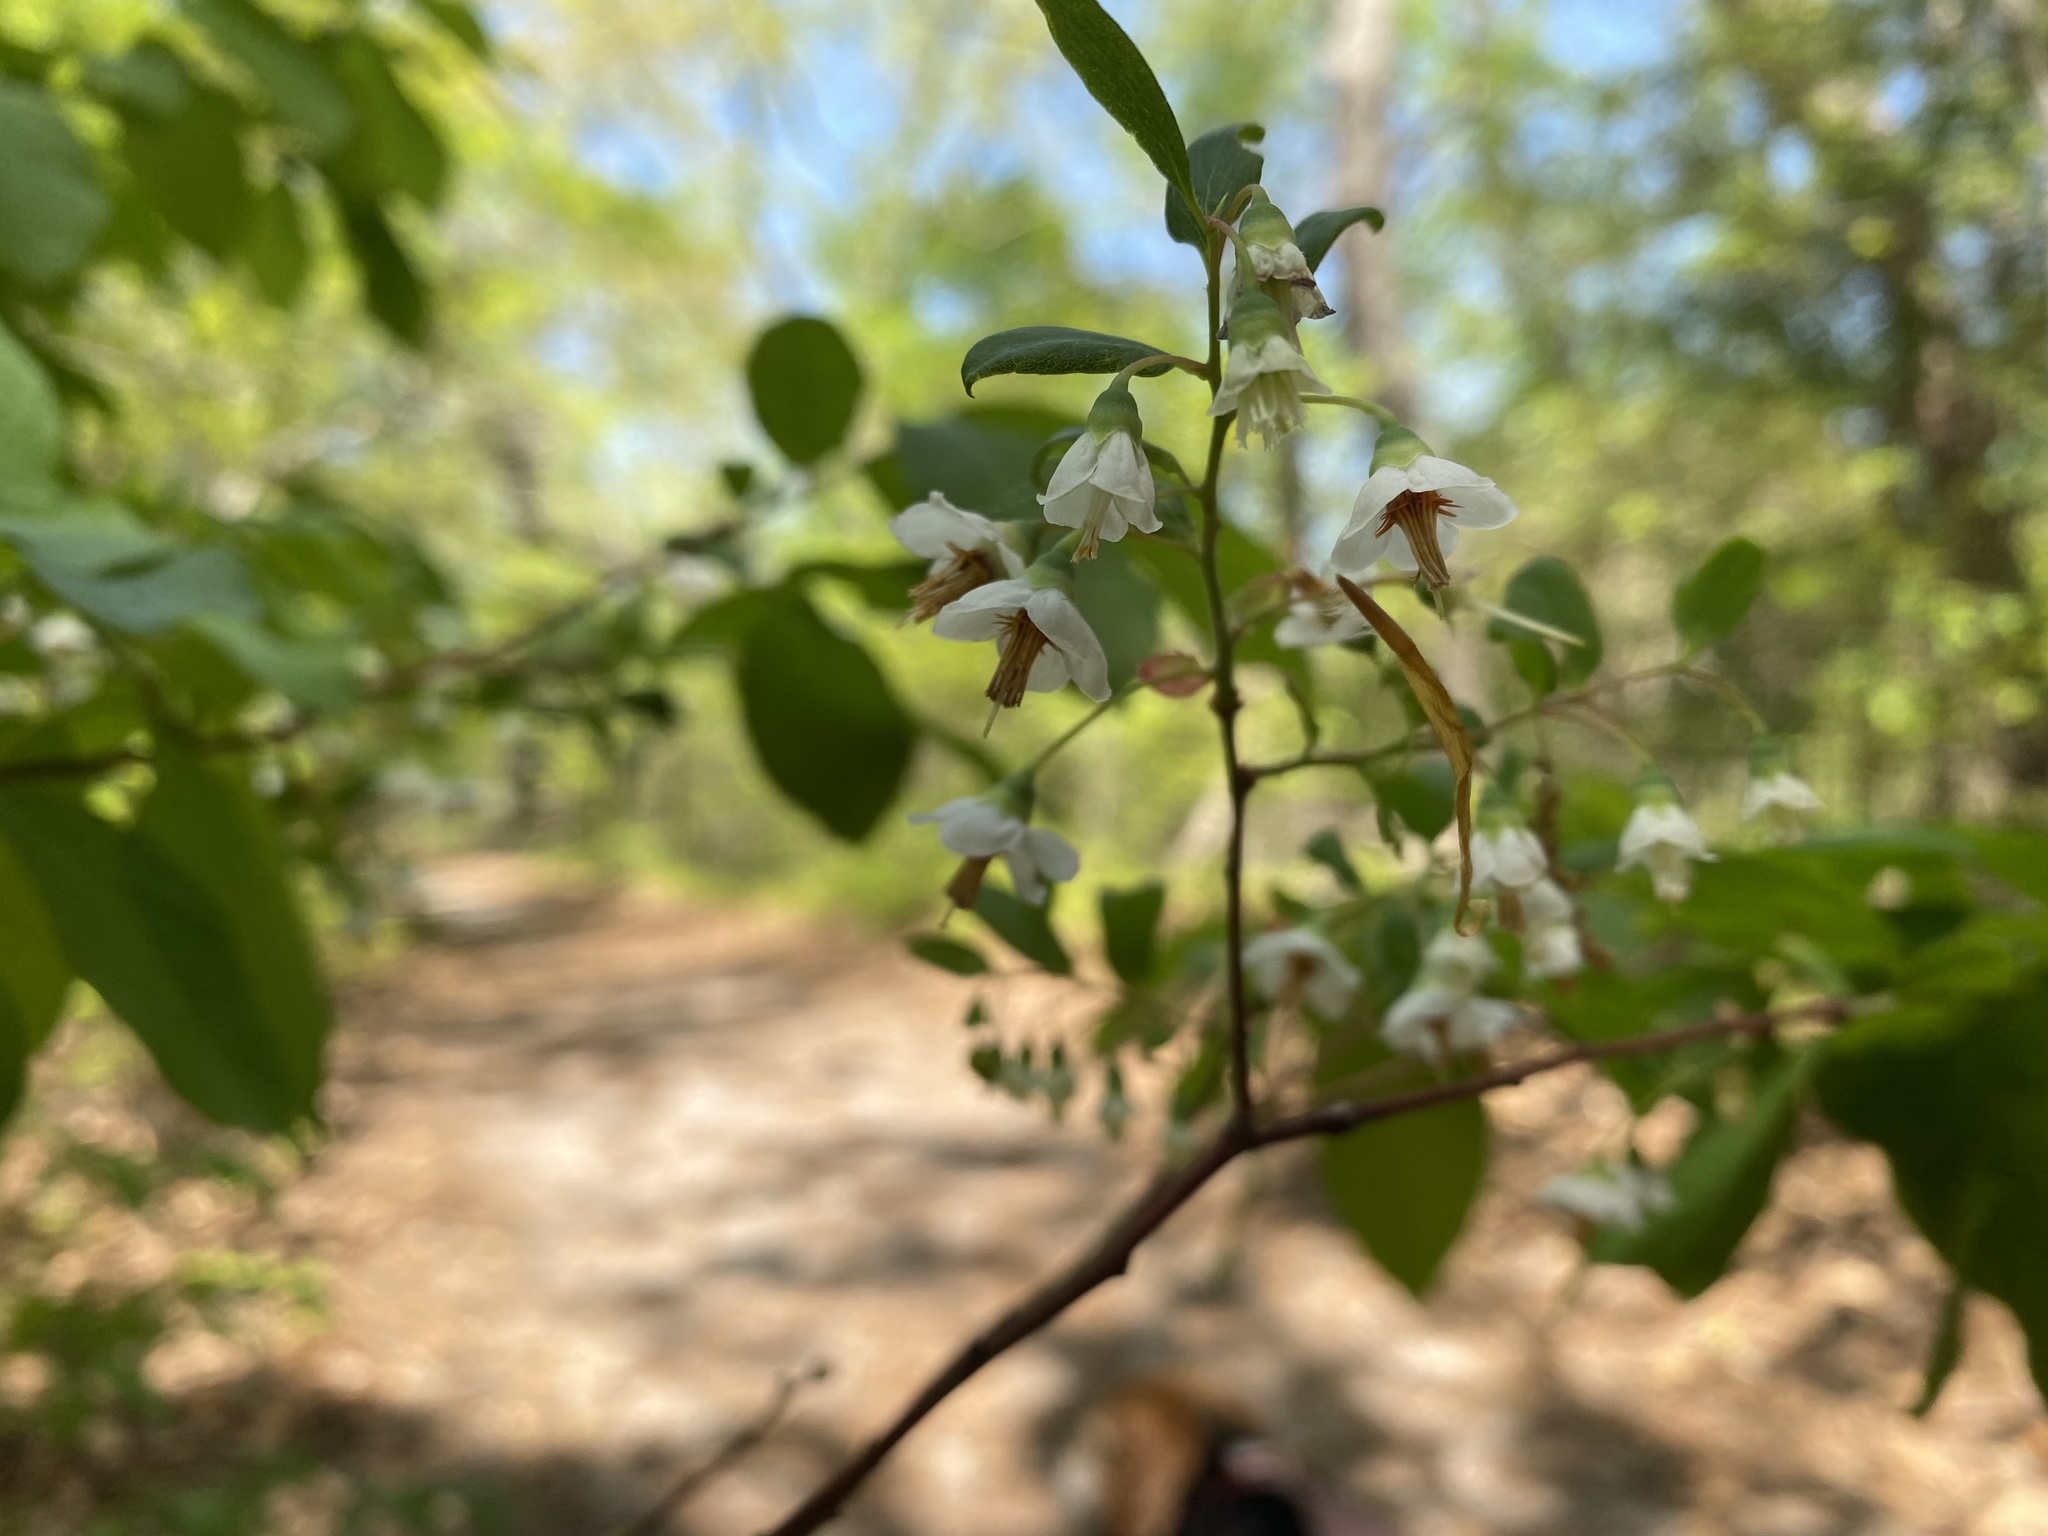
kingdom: Plantae
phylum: Tracheophyta
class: Magnoliopsida
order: Ericales
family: Ericaceae
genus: Vaccinium
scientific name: Vaccinium stamineum
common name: Deerberry
